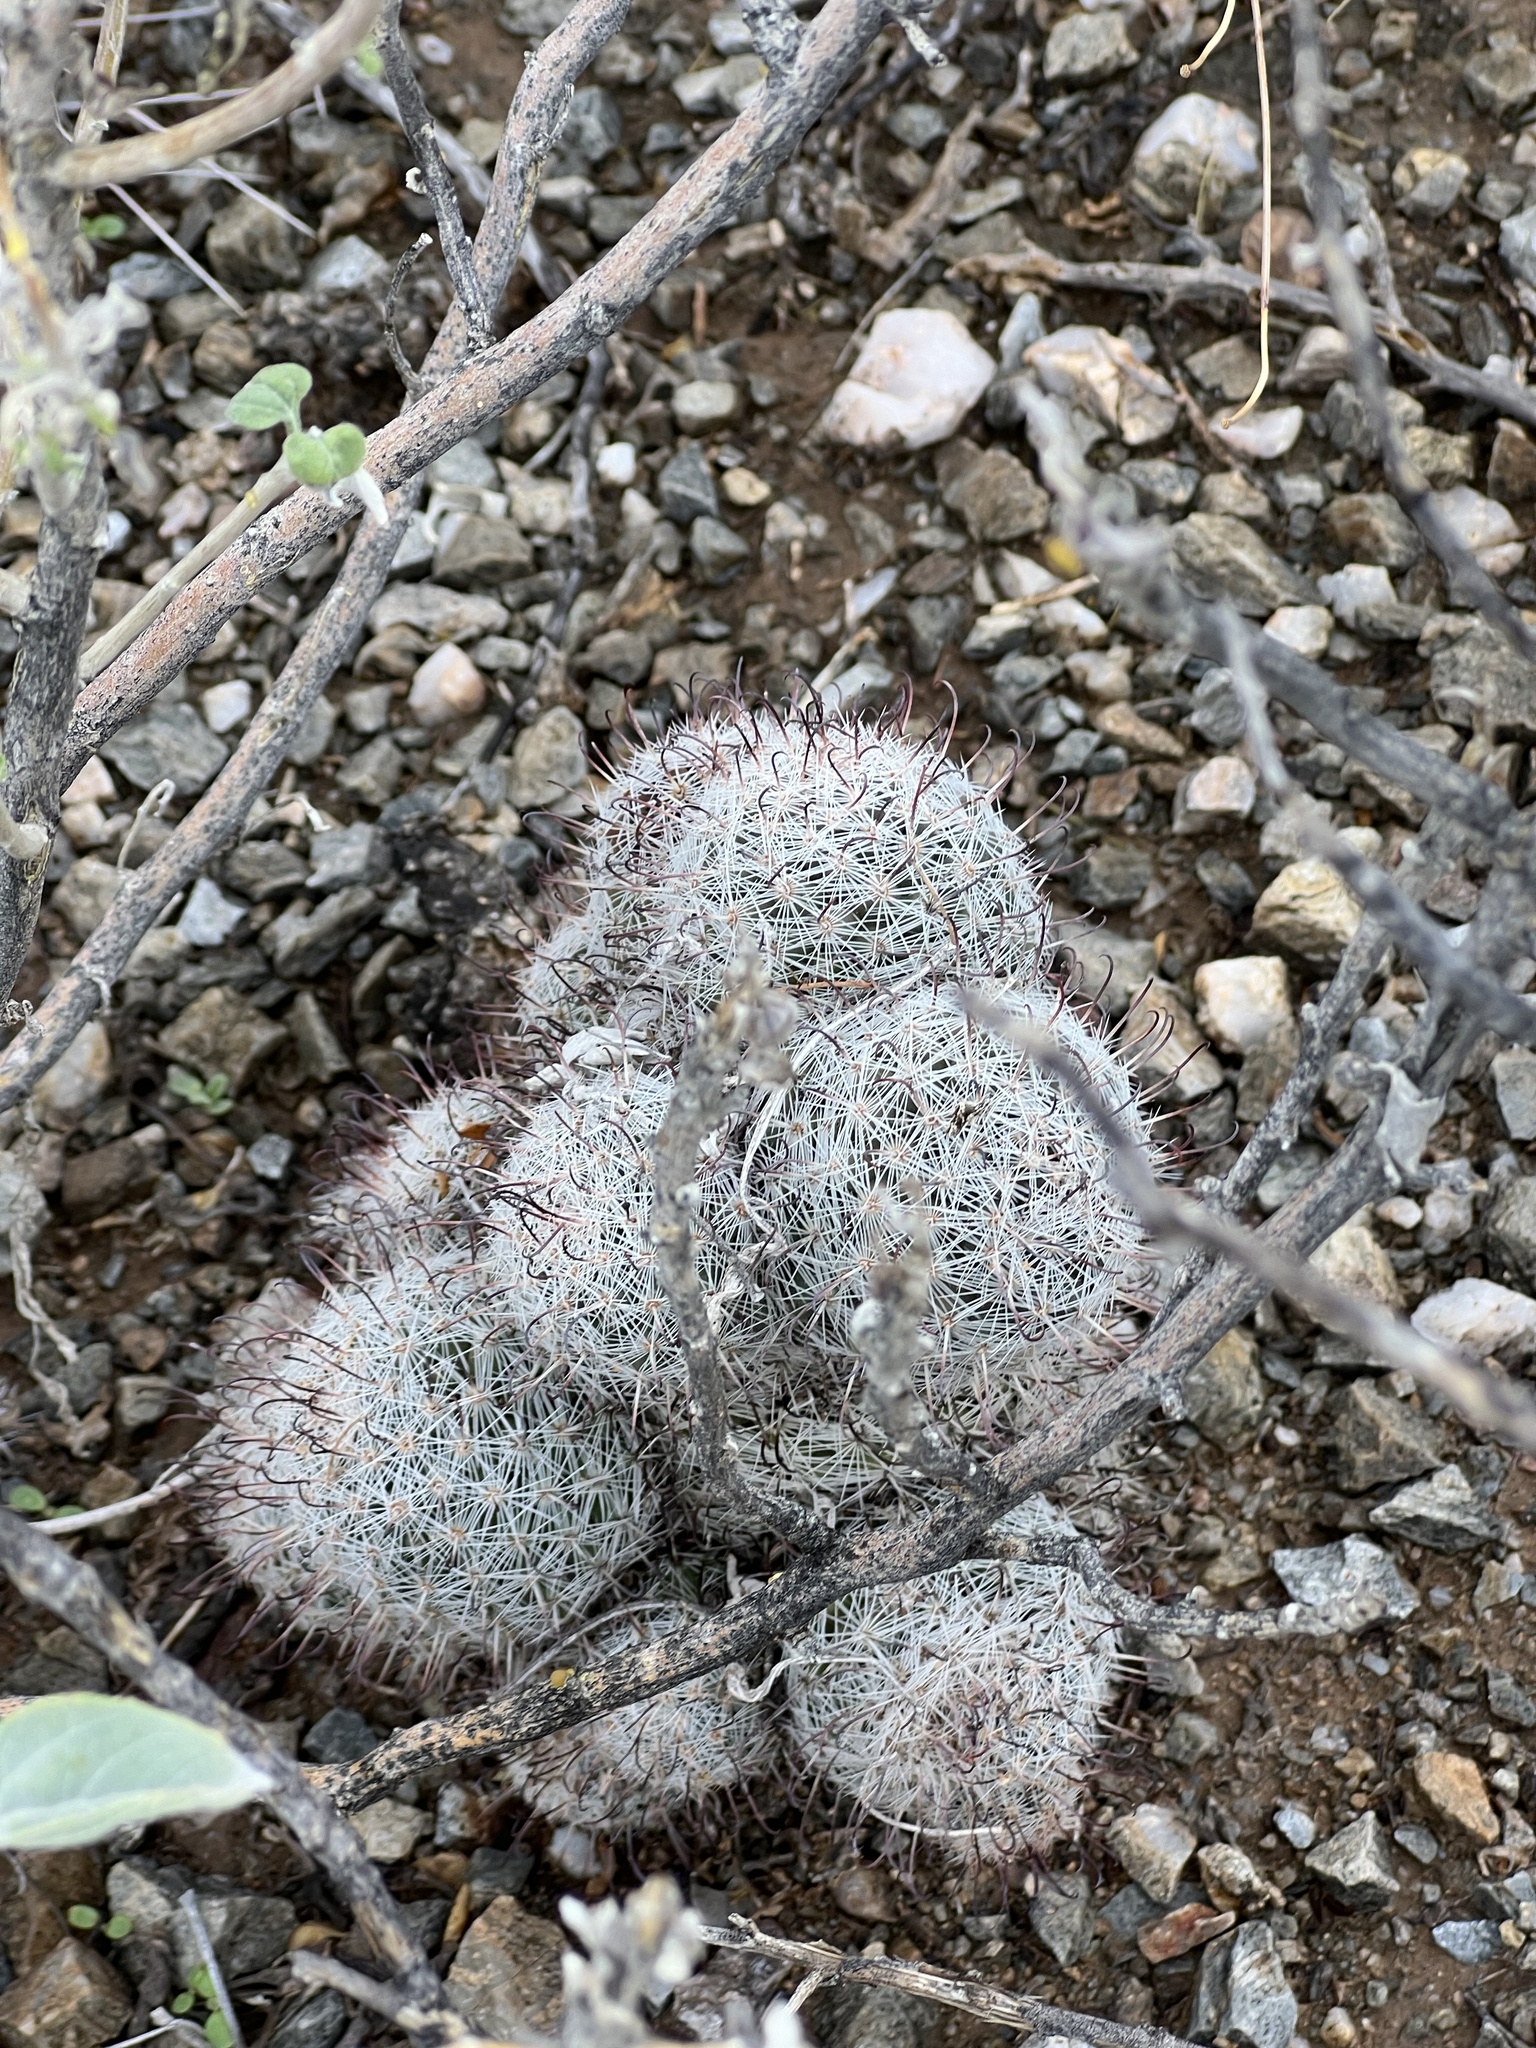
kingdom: Plantae
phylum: Tracheophyta
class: Magnoliopsida
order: Caryophyllales
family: Cactaceae
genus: Cochemiea
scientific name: Cochemiea grahamii
